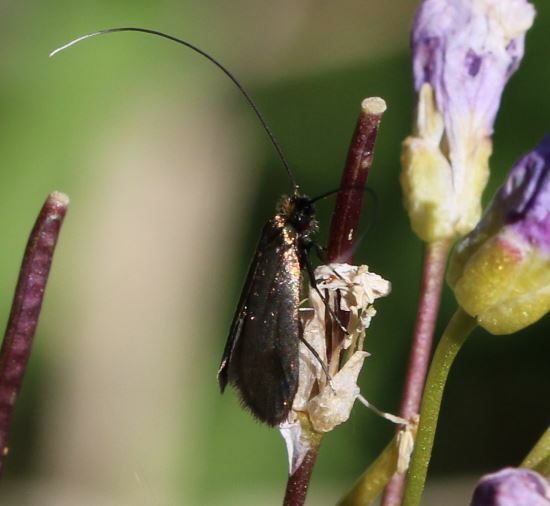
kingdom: Animalia
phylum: Arthropoda
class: Insecta
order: Lepidoptera
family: Adelidae
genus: Cauchas
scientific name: Cauchas rufimitrella
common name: Meadow long-horn
